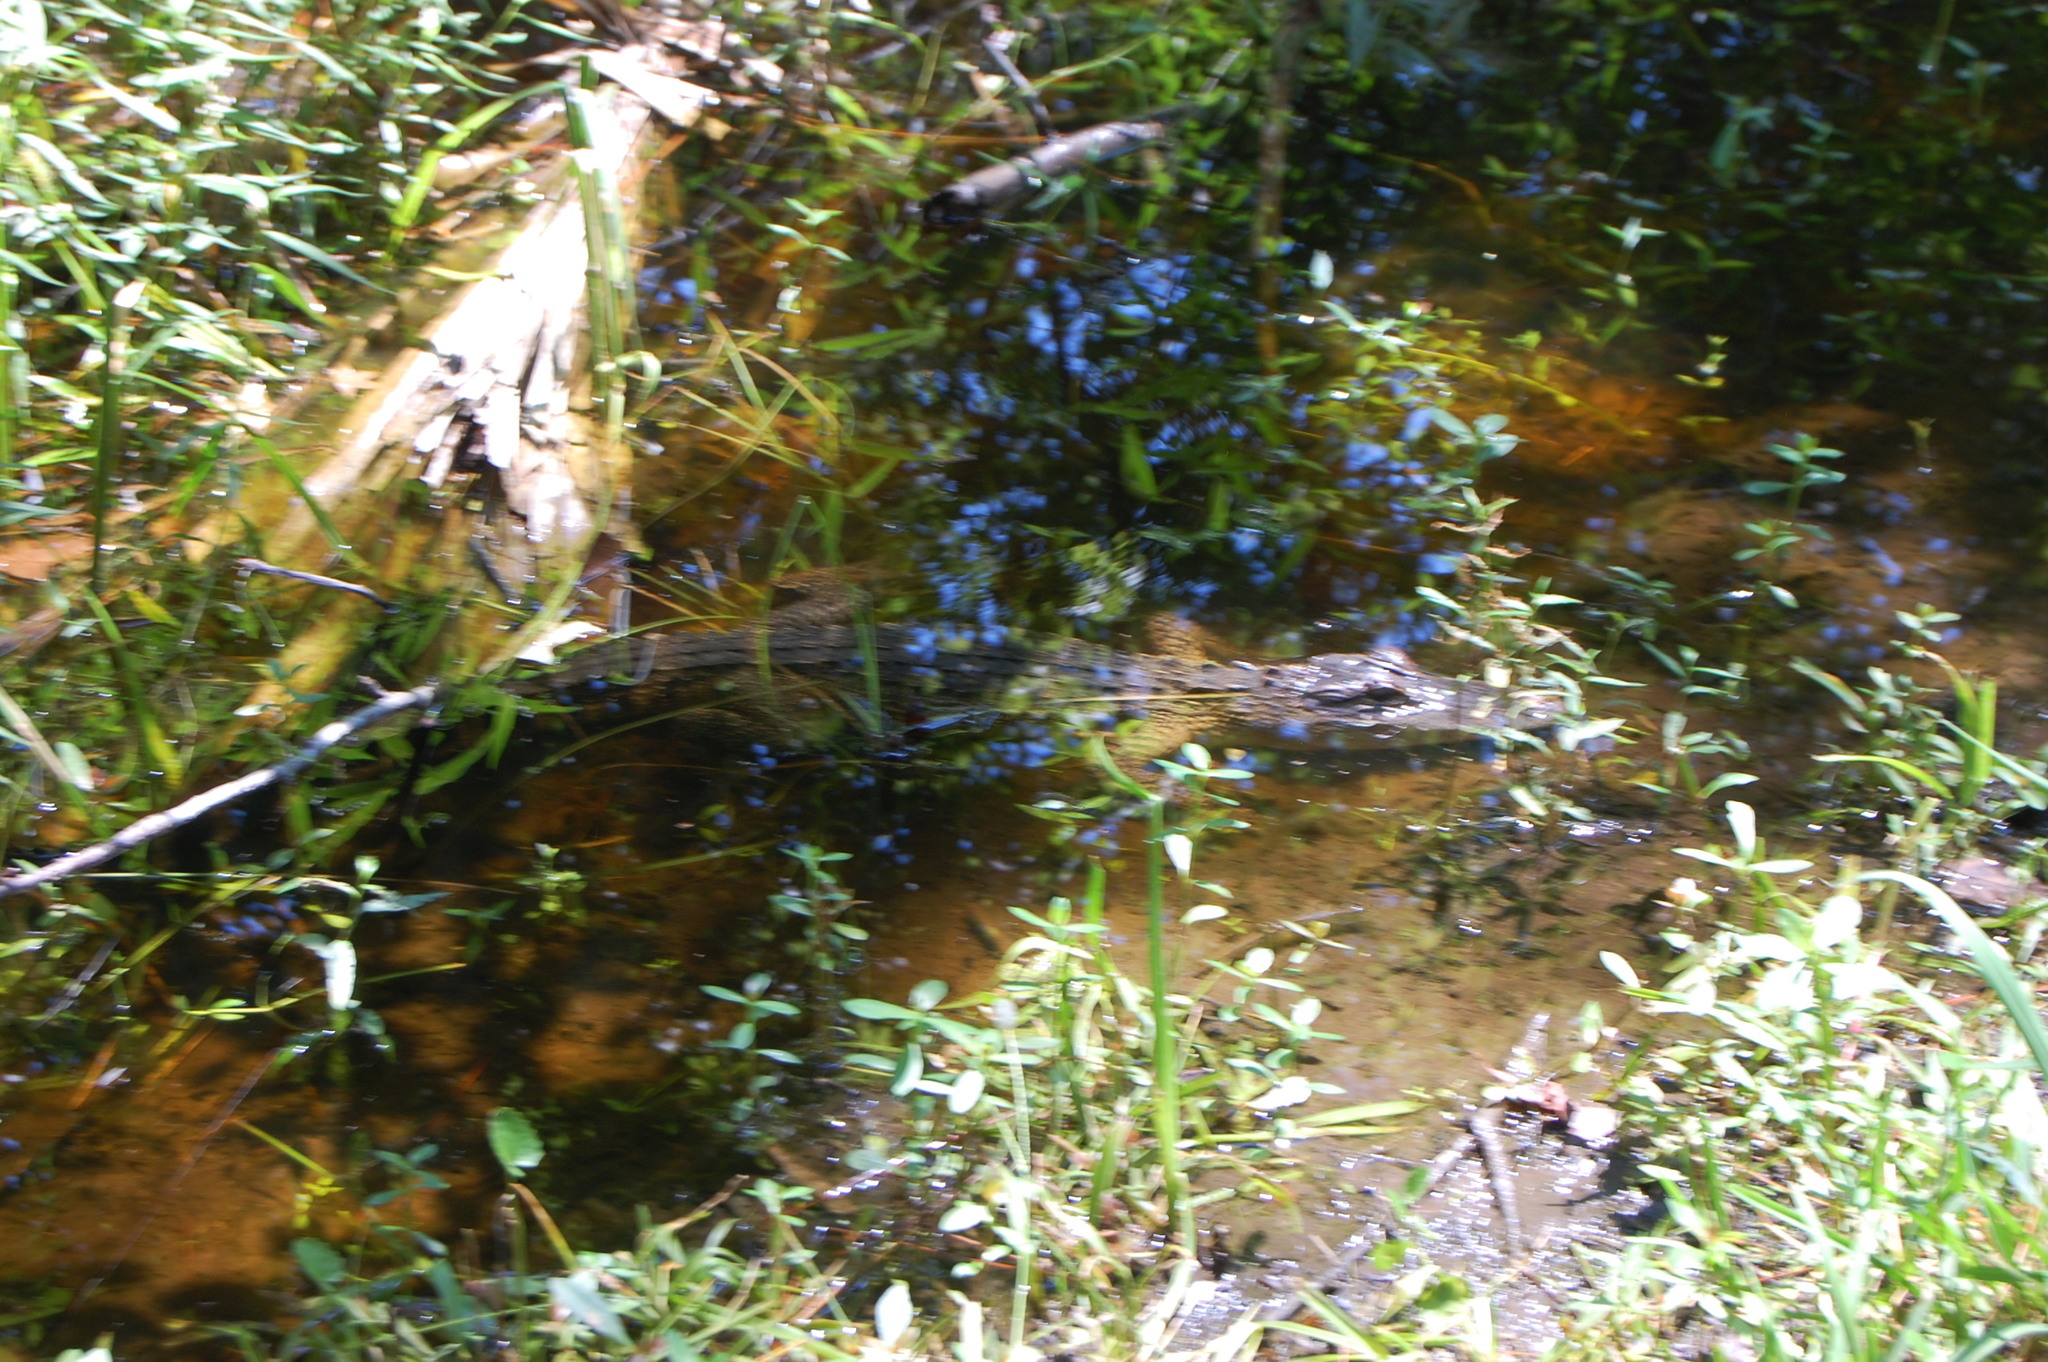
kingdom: Animalia
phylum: Chordata
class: Crocodylia
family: Alligatoridae
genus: Alligator
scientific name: Alligator mississippiensis
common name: American alligator
